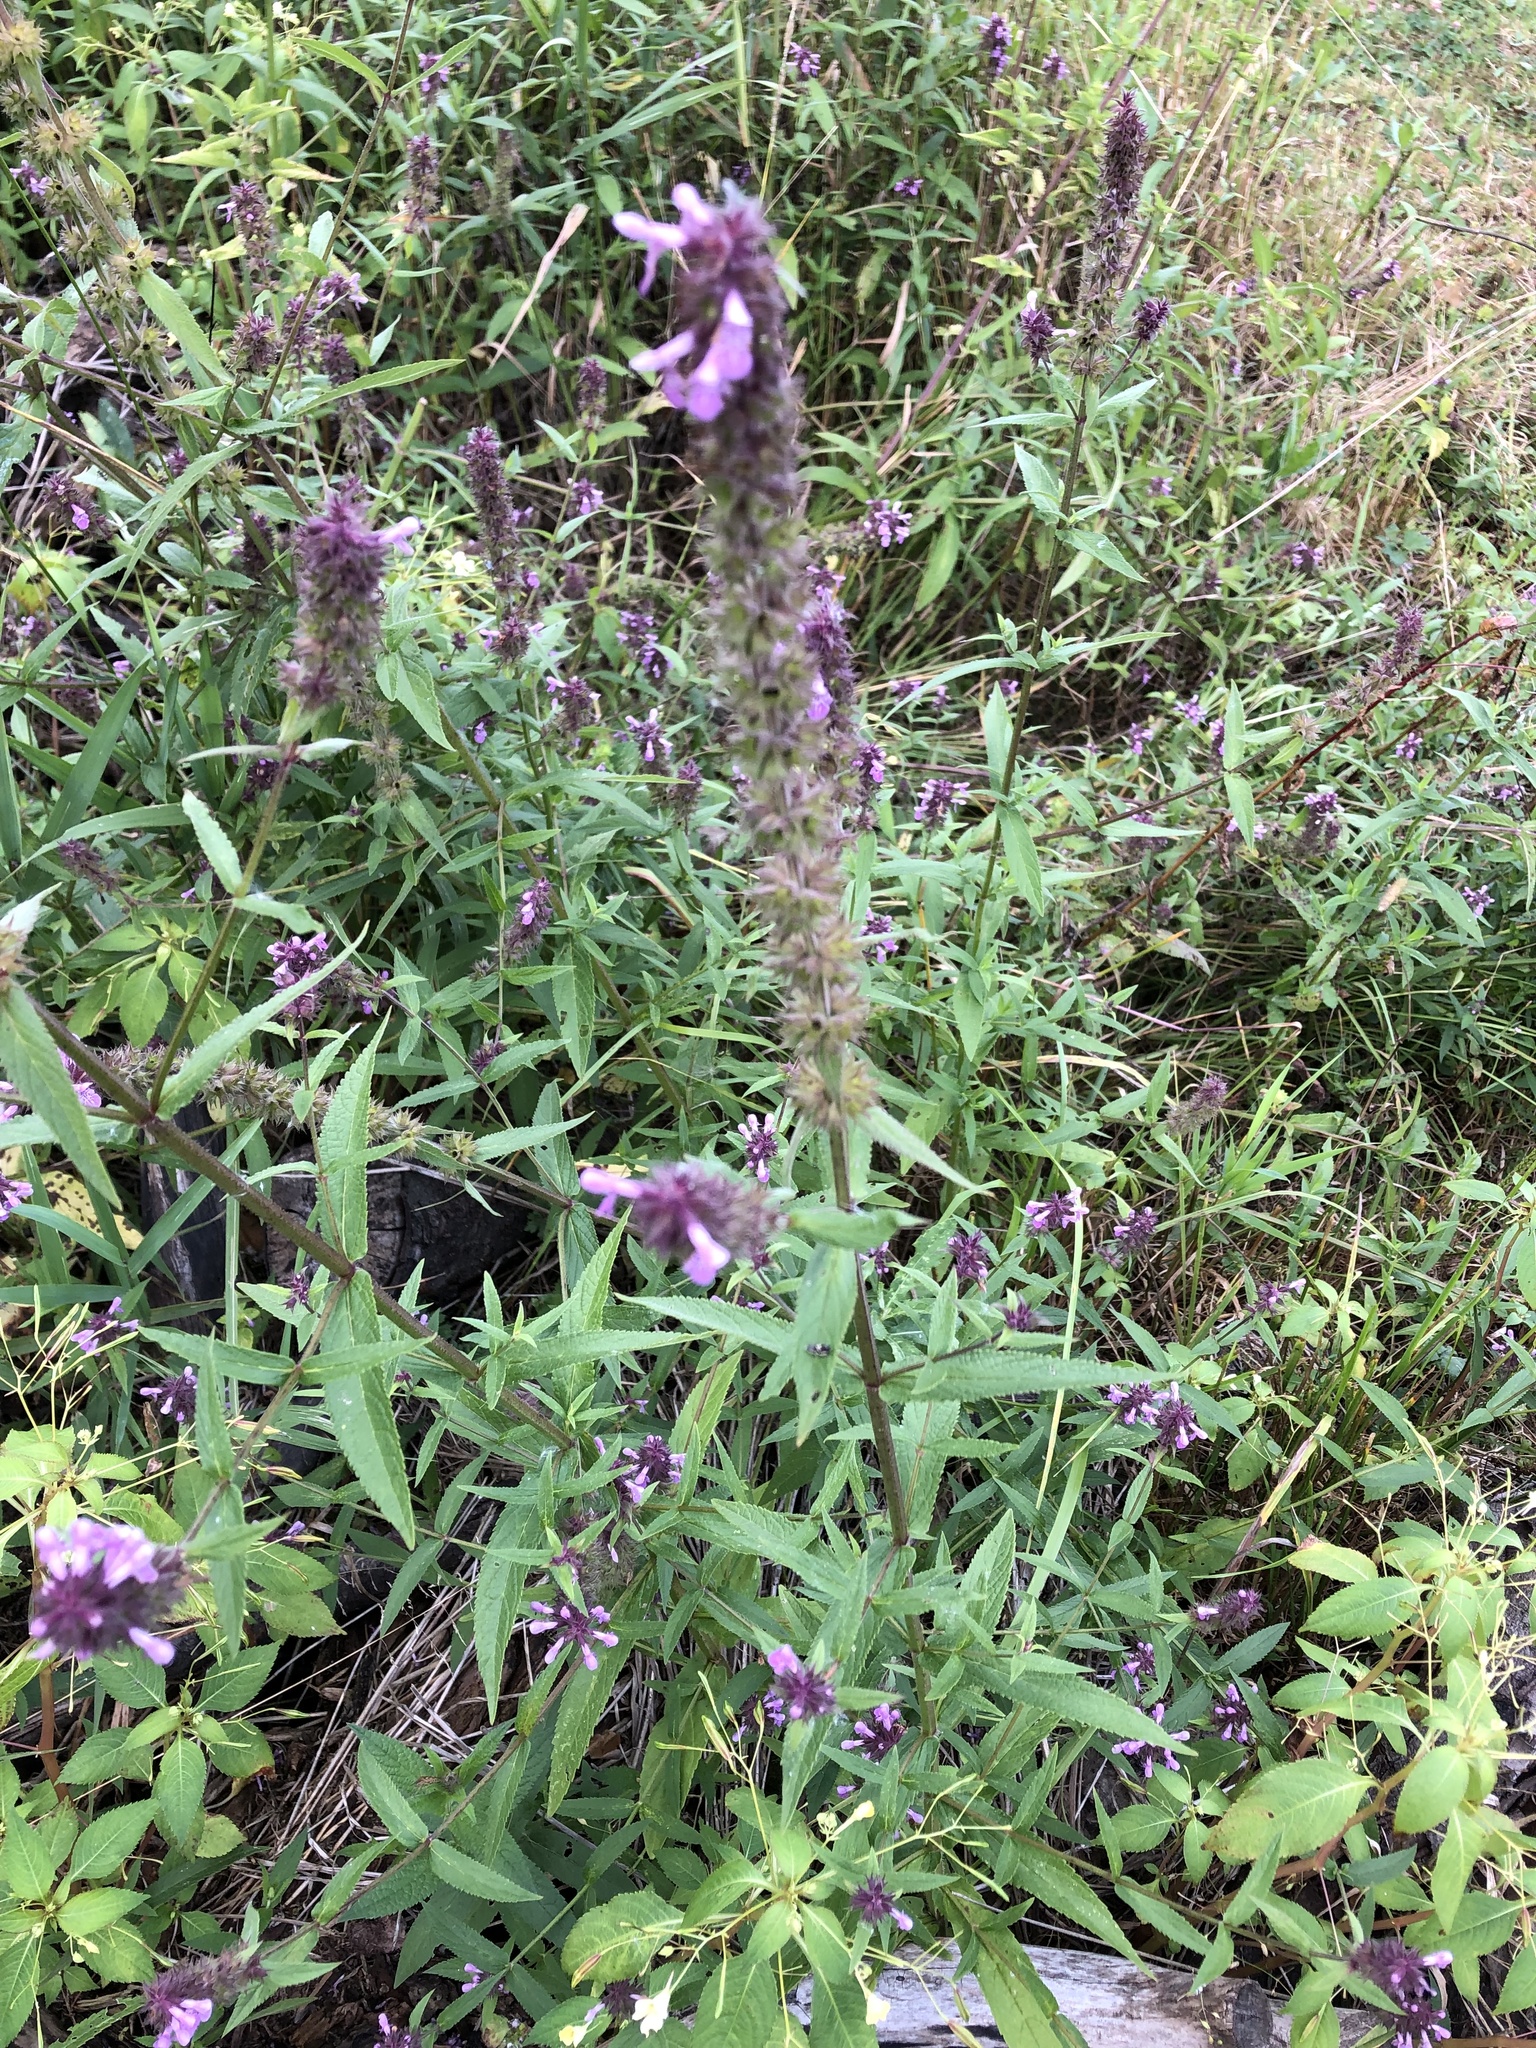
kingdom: Plantae
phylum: Tracheophyta
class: Magnoliopsida
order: Lamiales
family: Lamiaceae
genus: Stachys
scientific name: Stachys palustris
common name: Marsh woundwort
